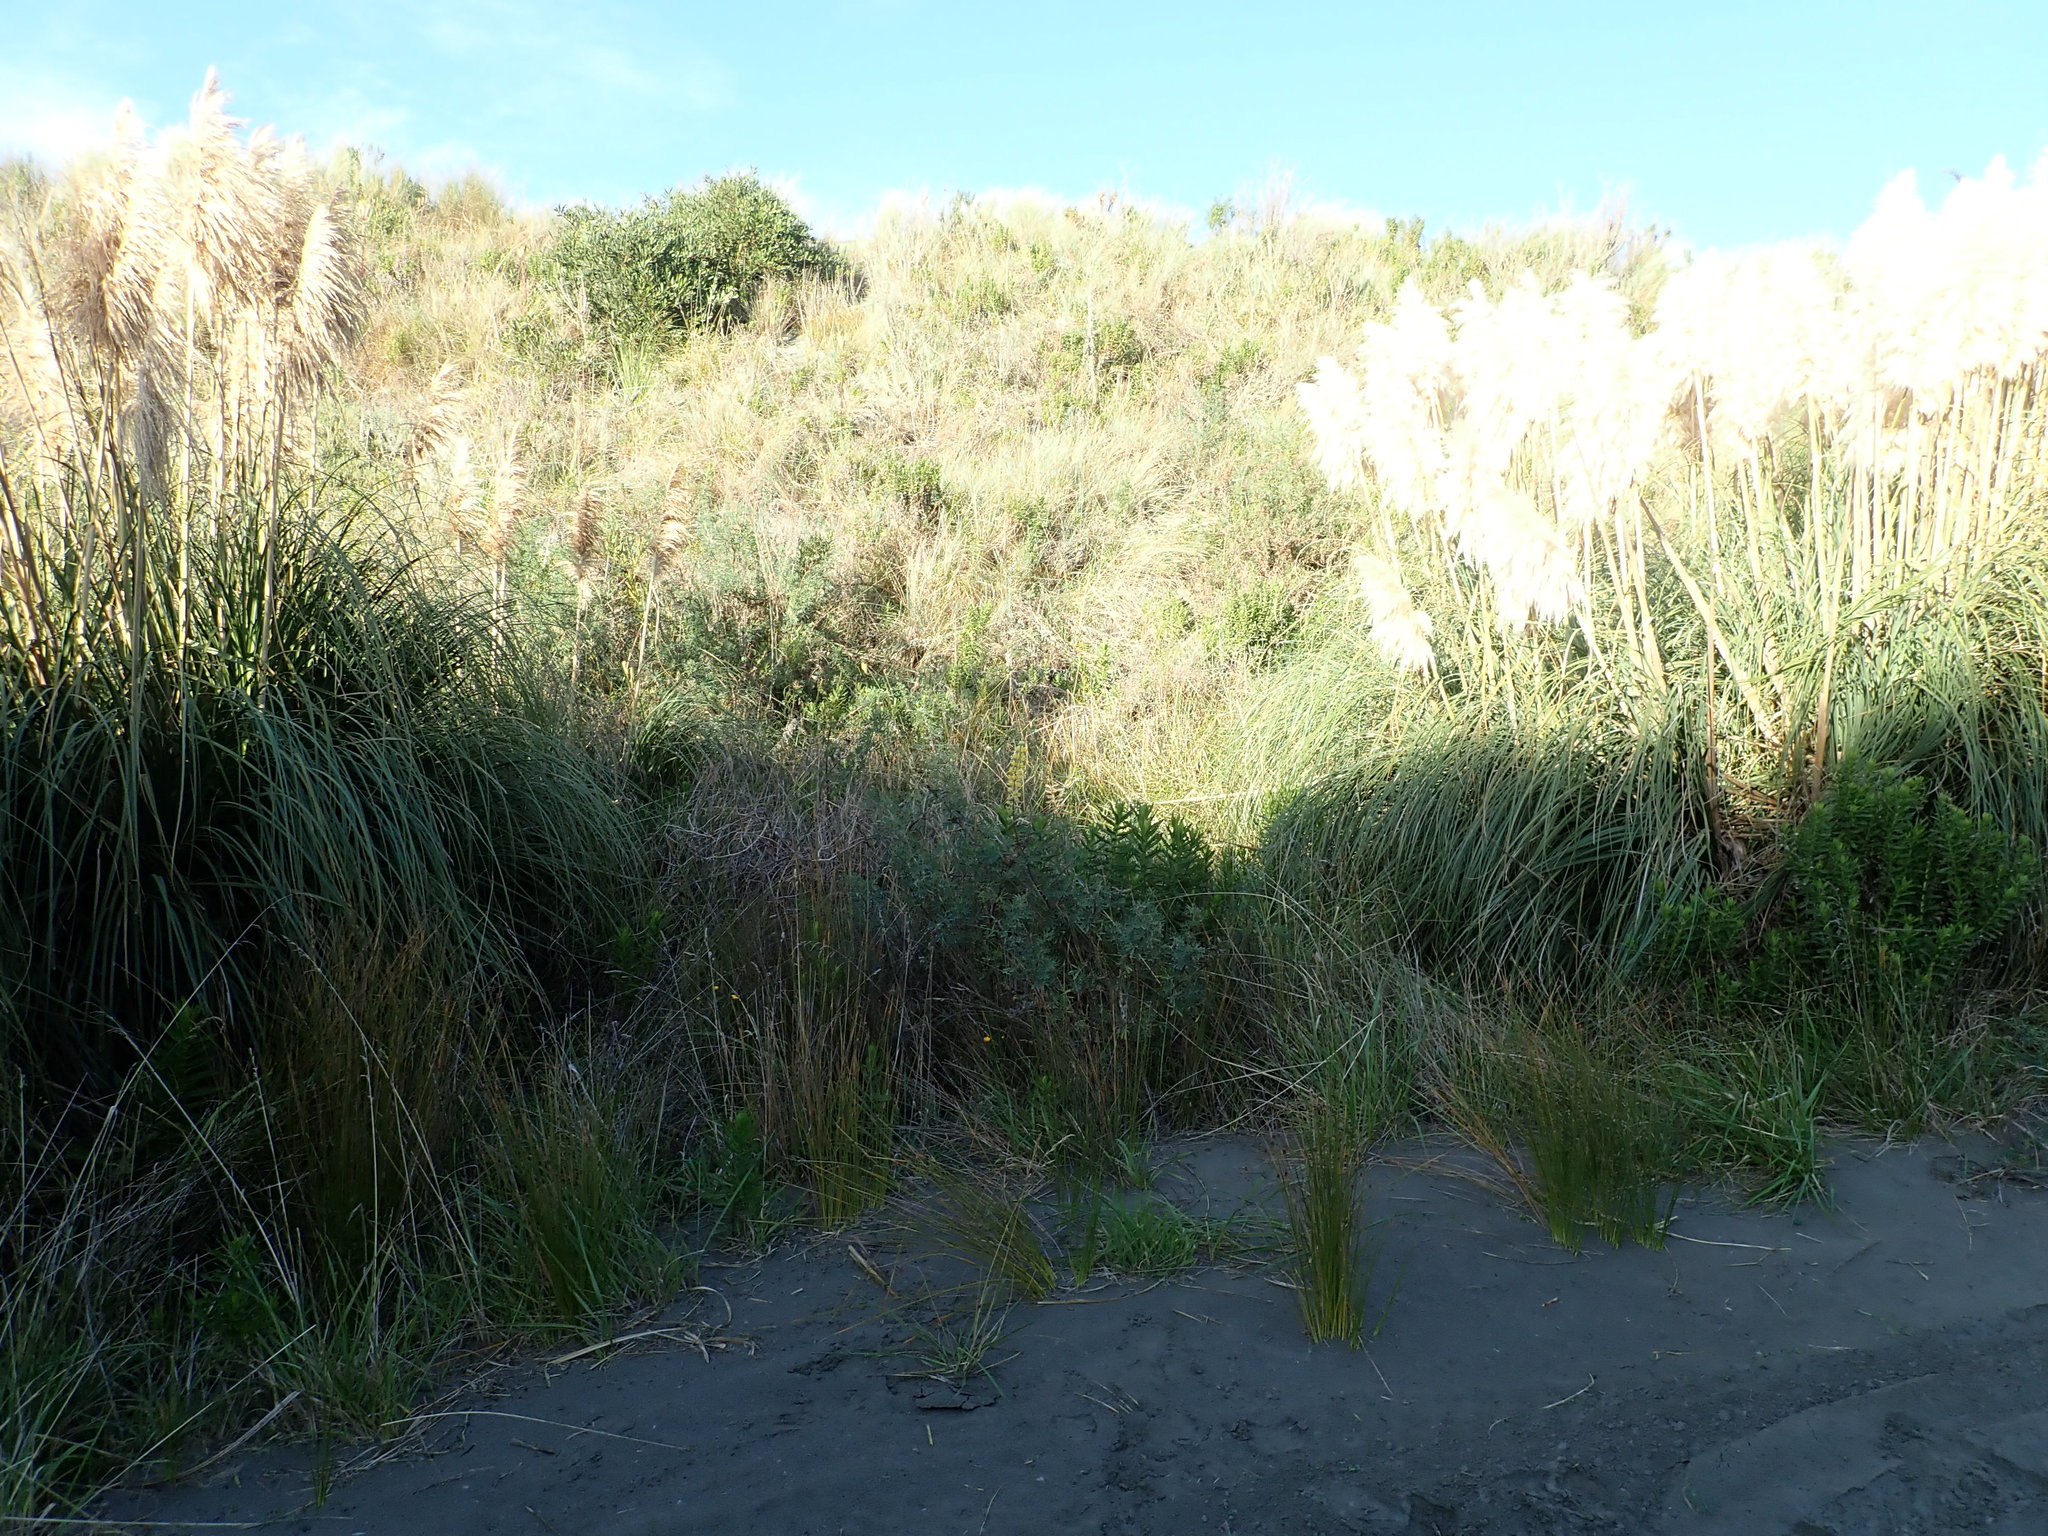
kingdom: Plantae
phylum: Tracheophyta
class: Magnoliopsida
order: Fabales
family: Fabaceae
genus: Lupinus
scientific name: Lupinus arboreus
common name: Yellow bush lupine
